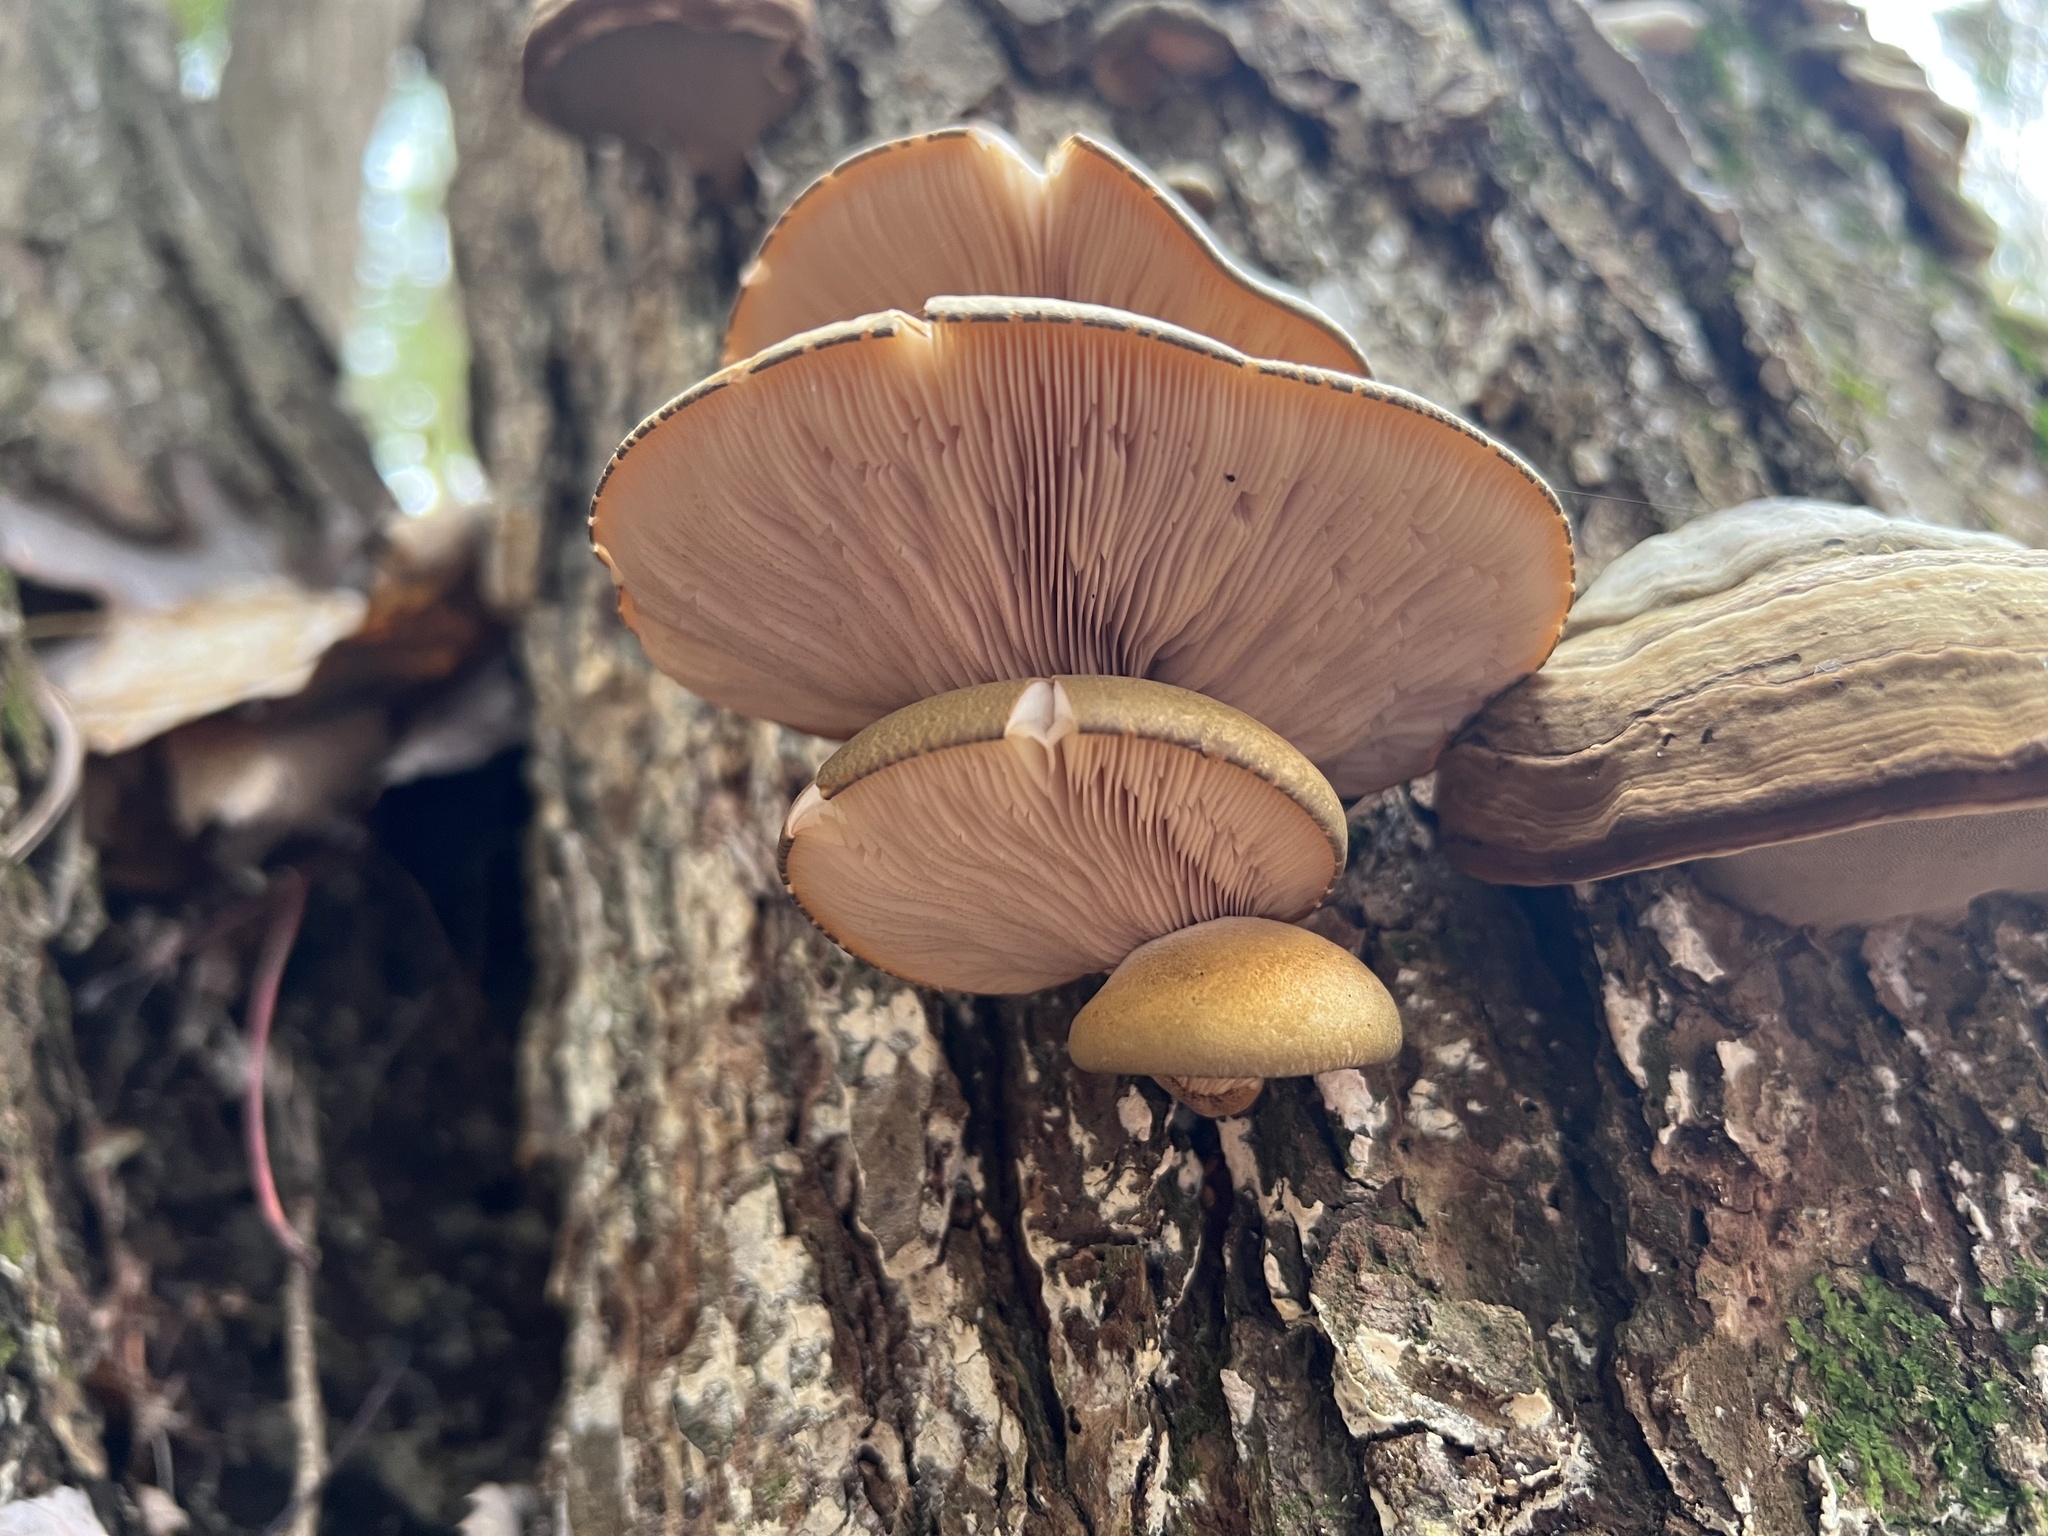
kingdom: Fungi
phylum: Basidiomycota
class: Agaricomycetes
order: Agaricales
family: Sarcomyxaceae
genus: Sarcomyxa
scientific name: Sarcomyxa serotina
